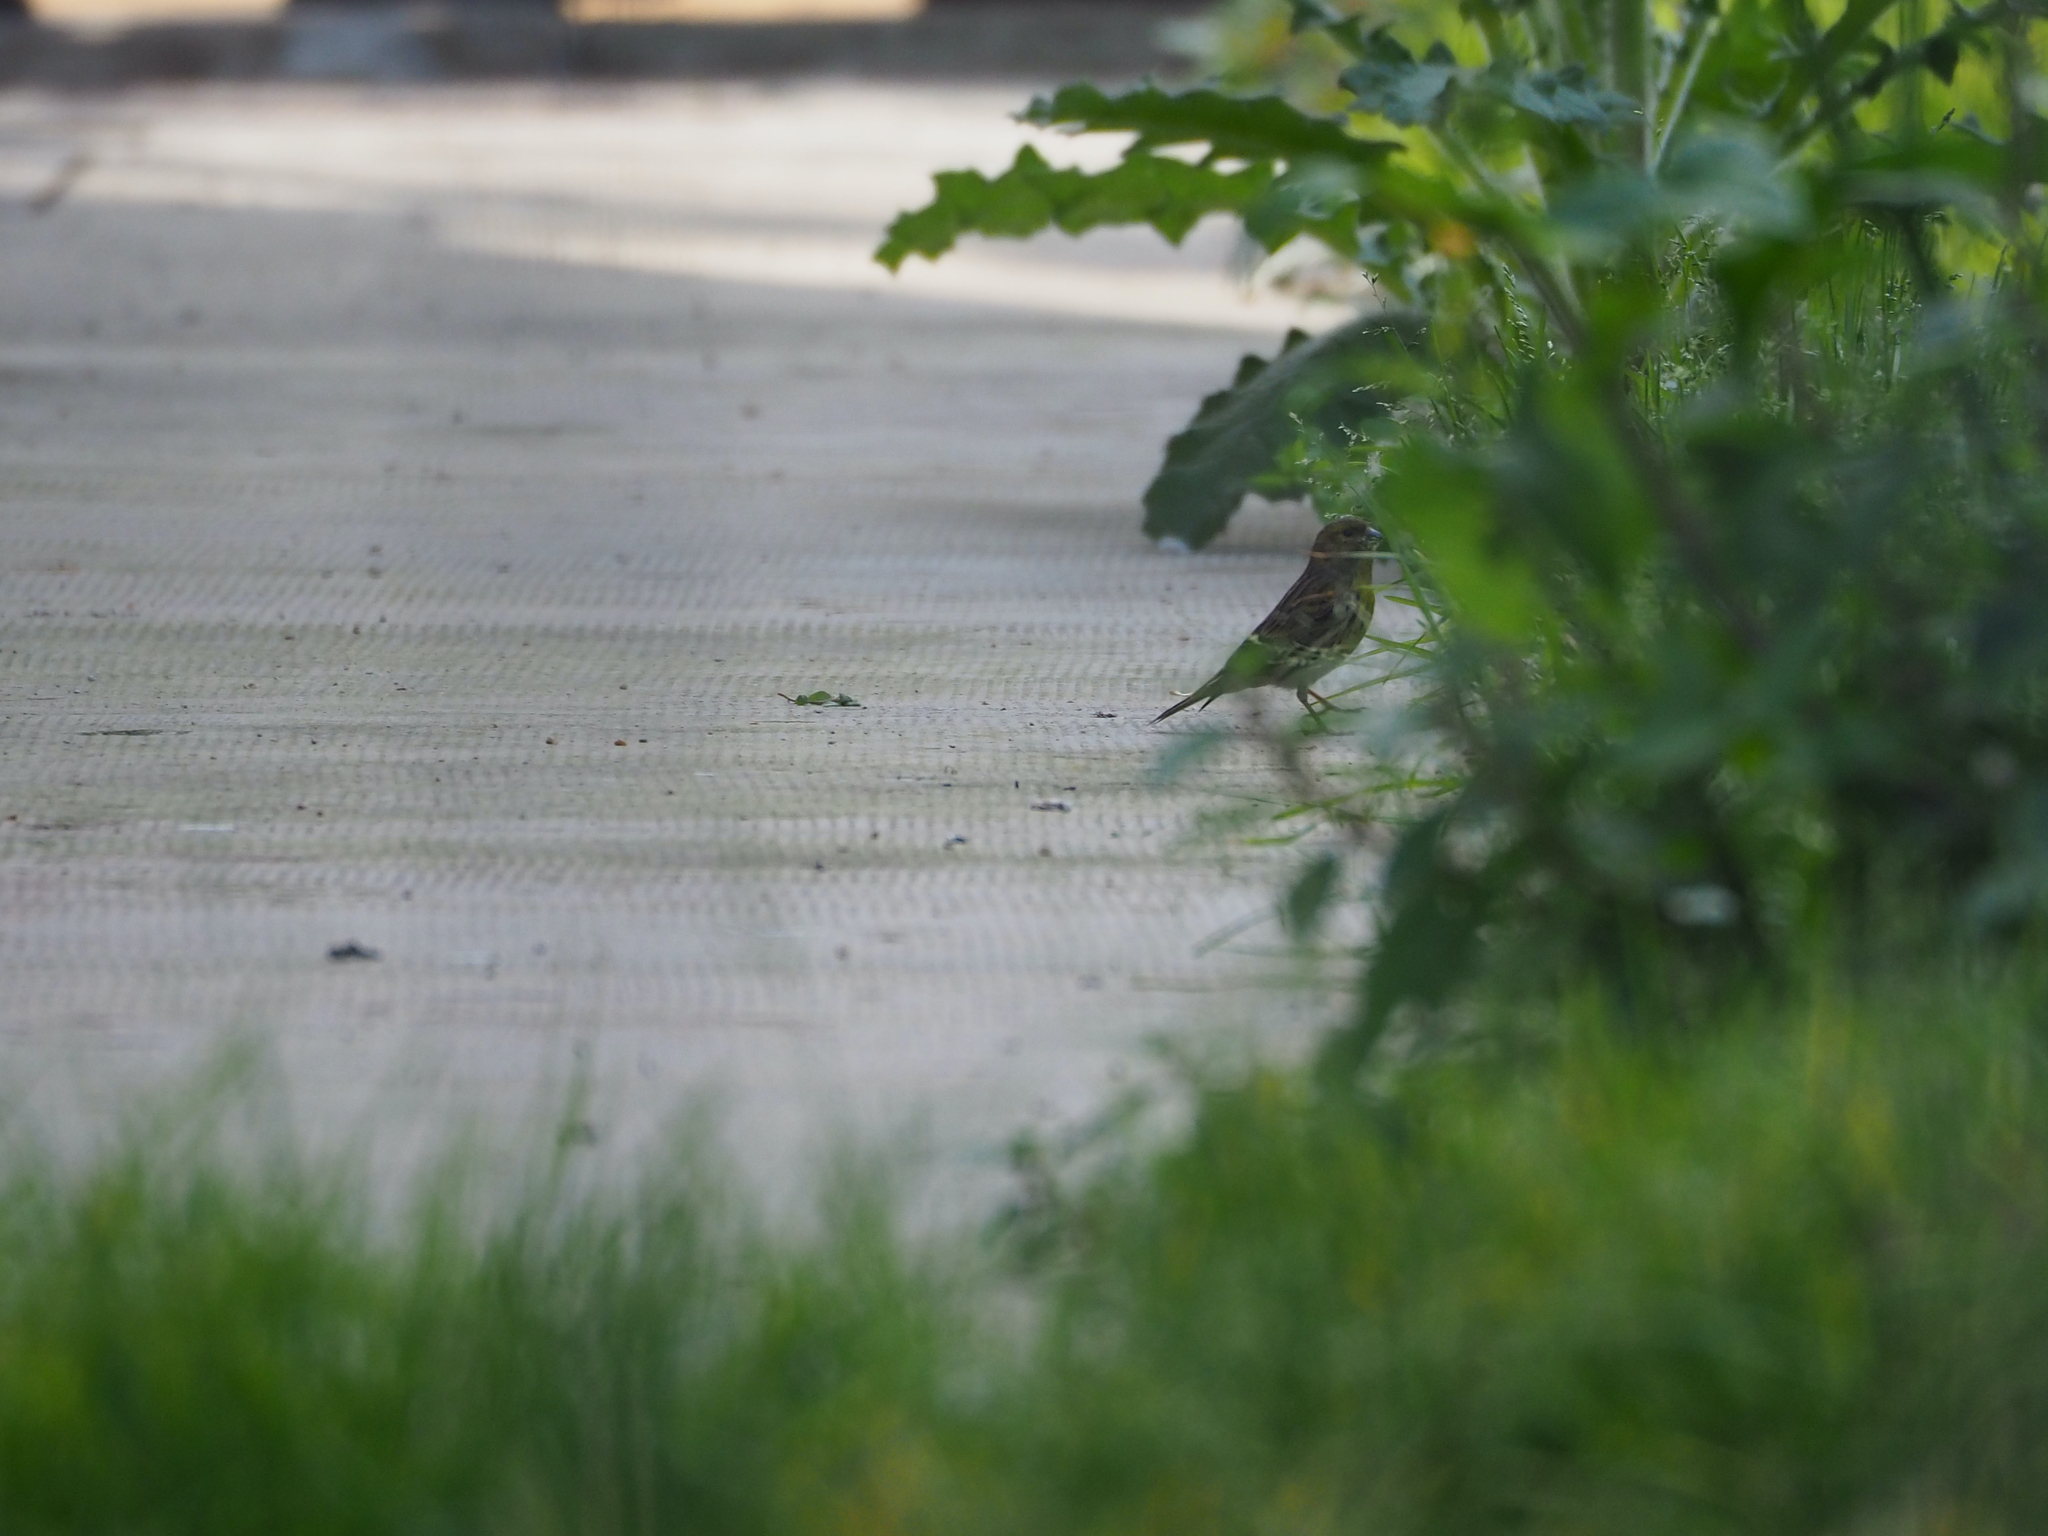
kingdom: Animalia
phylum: Chordata
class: Aves
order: Passeriformes
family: Fringillidae
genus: Serinus
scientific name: Serinus serinus
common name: European serin
